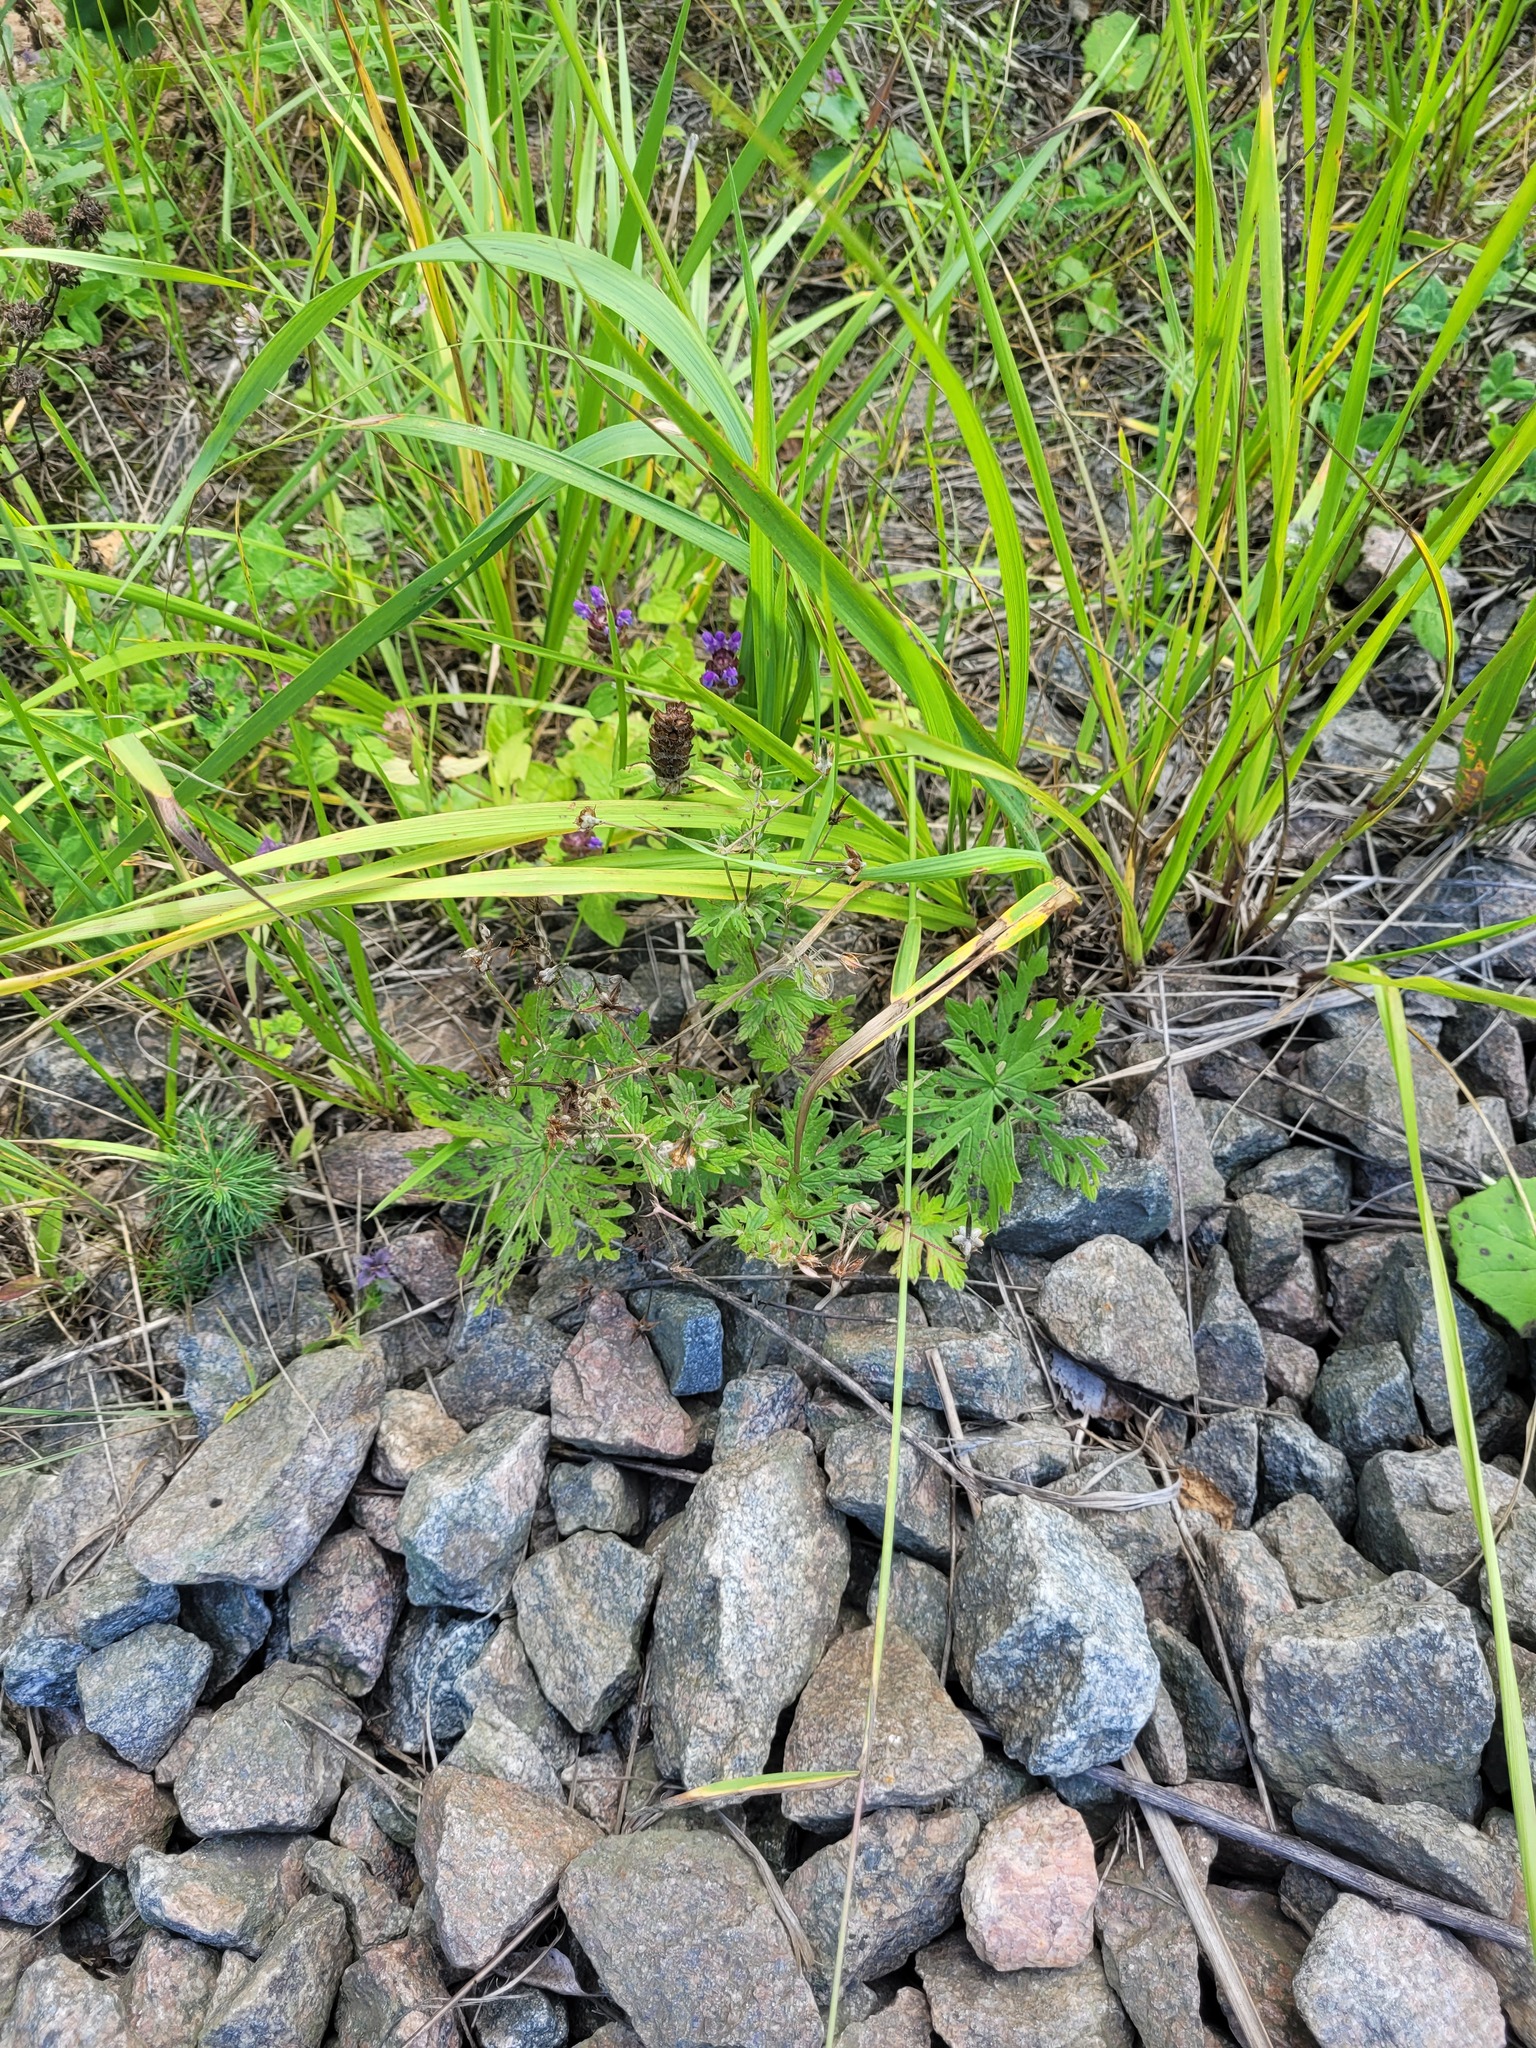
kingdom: Plantae
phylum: Tracheophyta
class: Magnoliopsida
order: Lamiales
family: Lamiaceae
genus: Prunella
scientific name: Prunella vulgaris
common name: Heal-all
